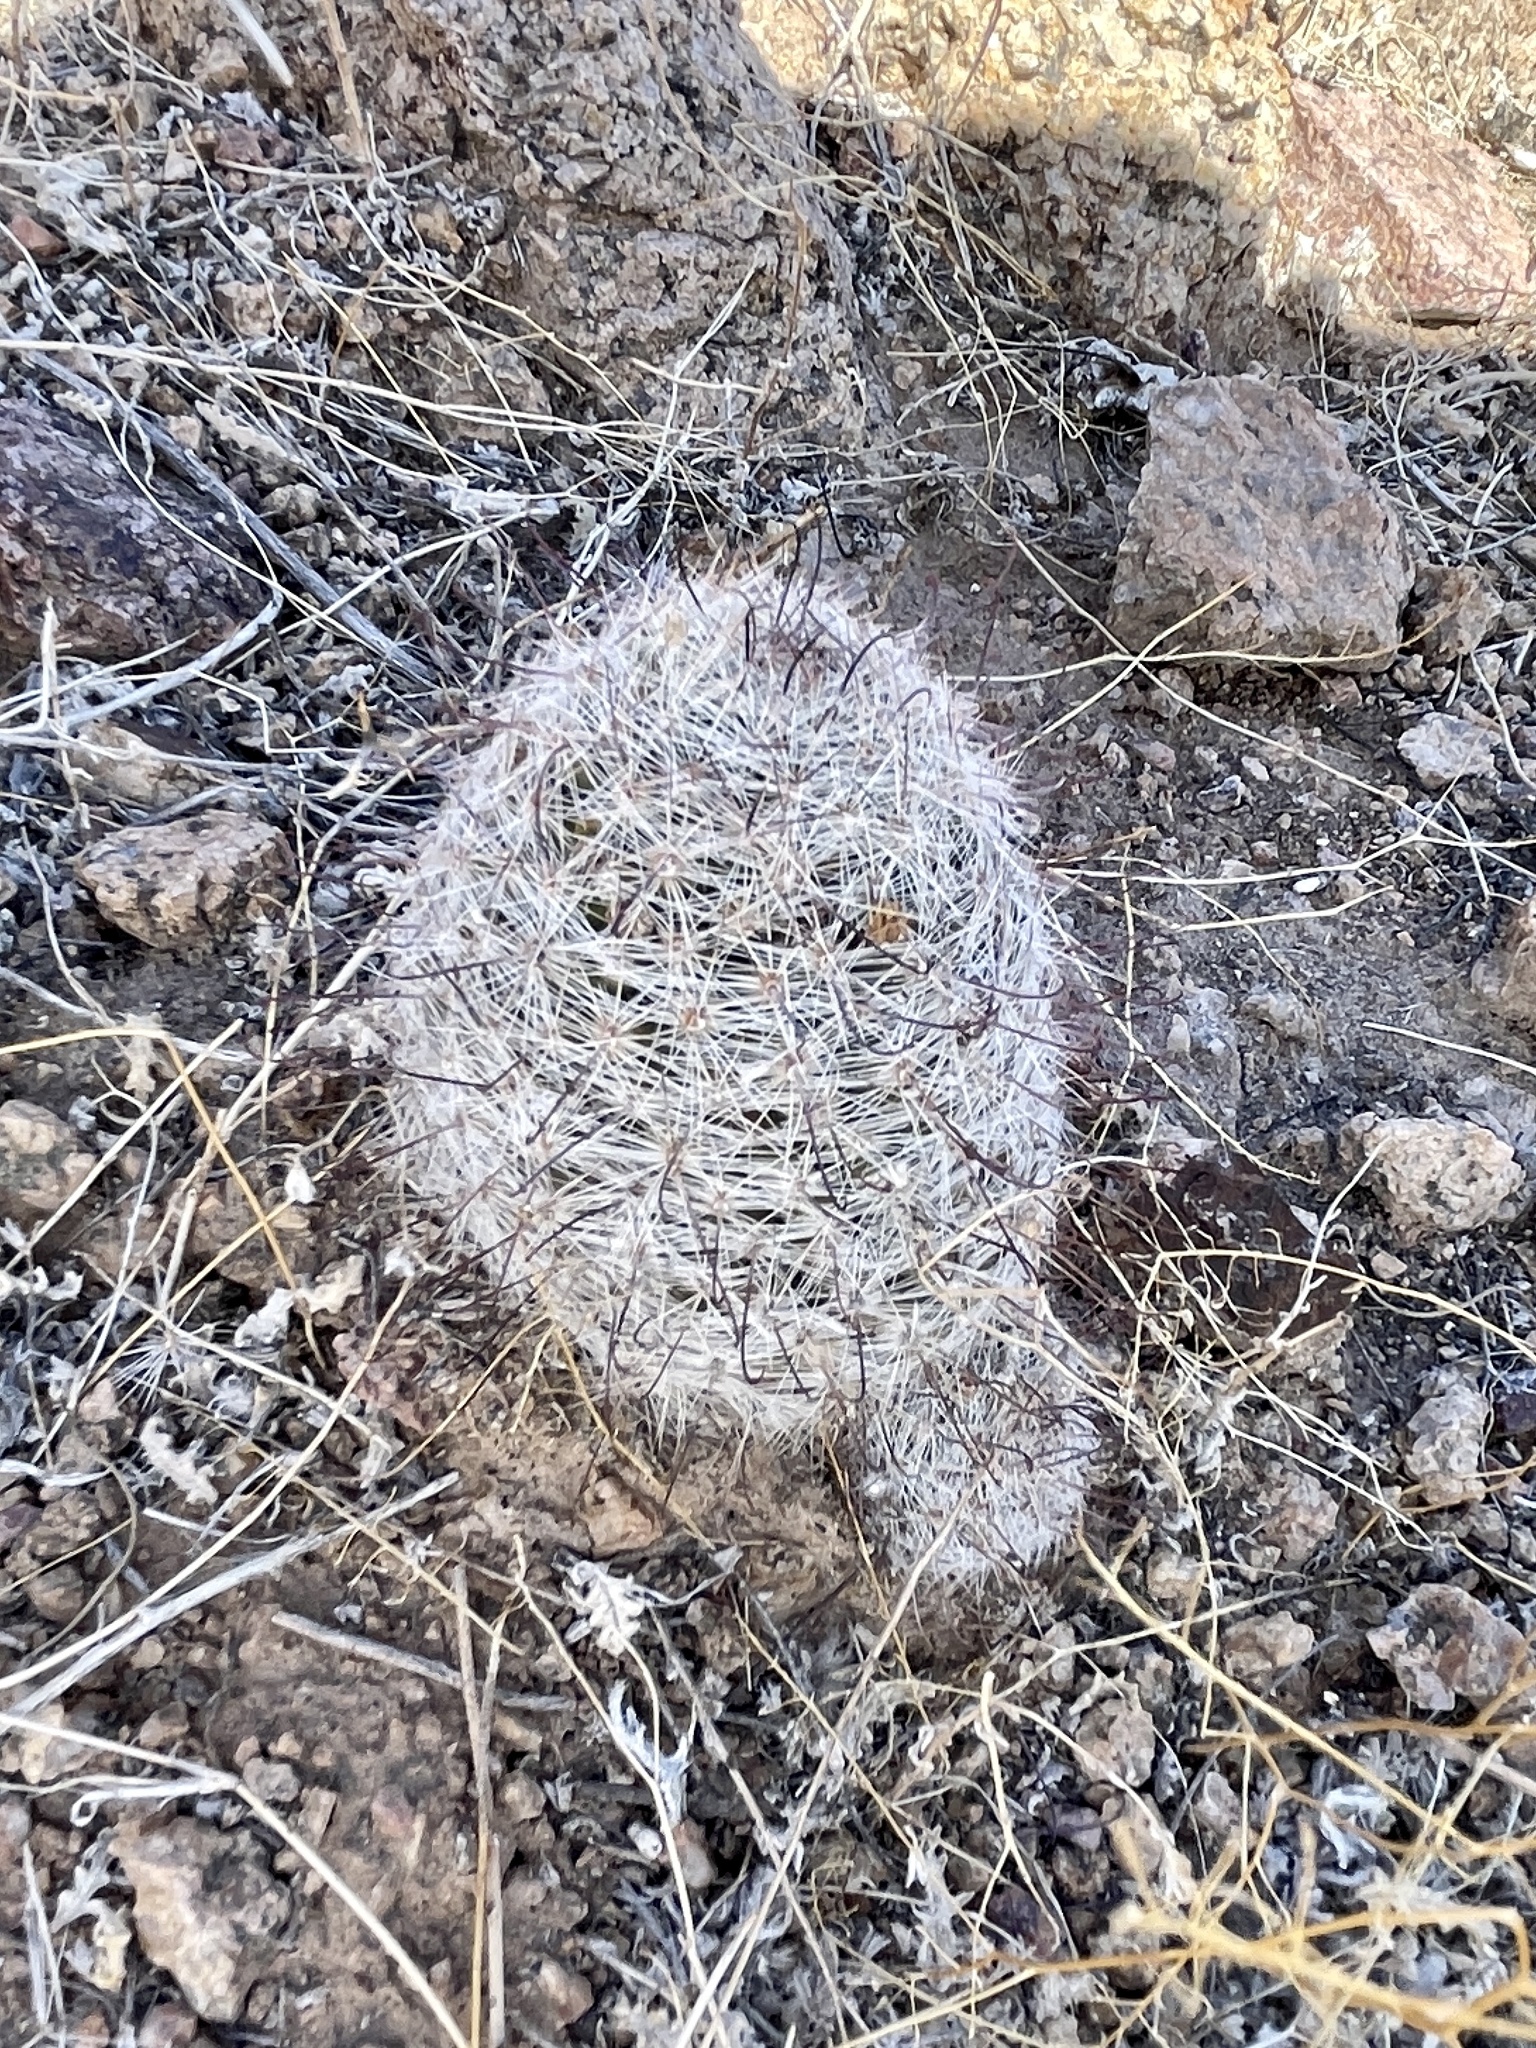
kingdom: Plantae
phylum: Tracheophyta
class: Magnoliopsida
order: Caryophyllales
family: Cactaceae
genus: Cochemiea
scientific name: Cochemiea grahamii
